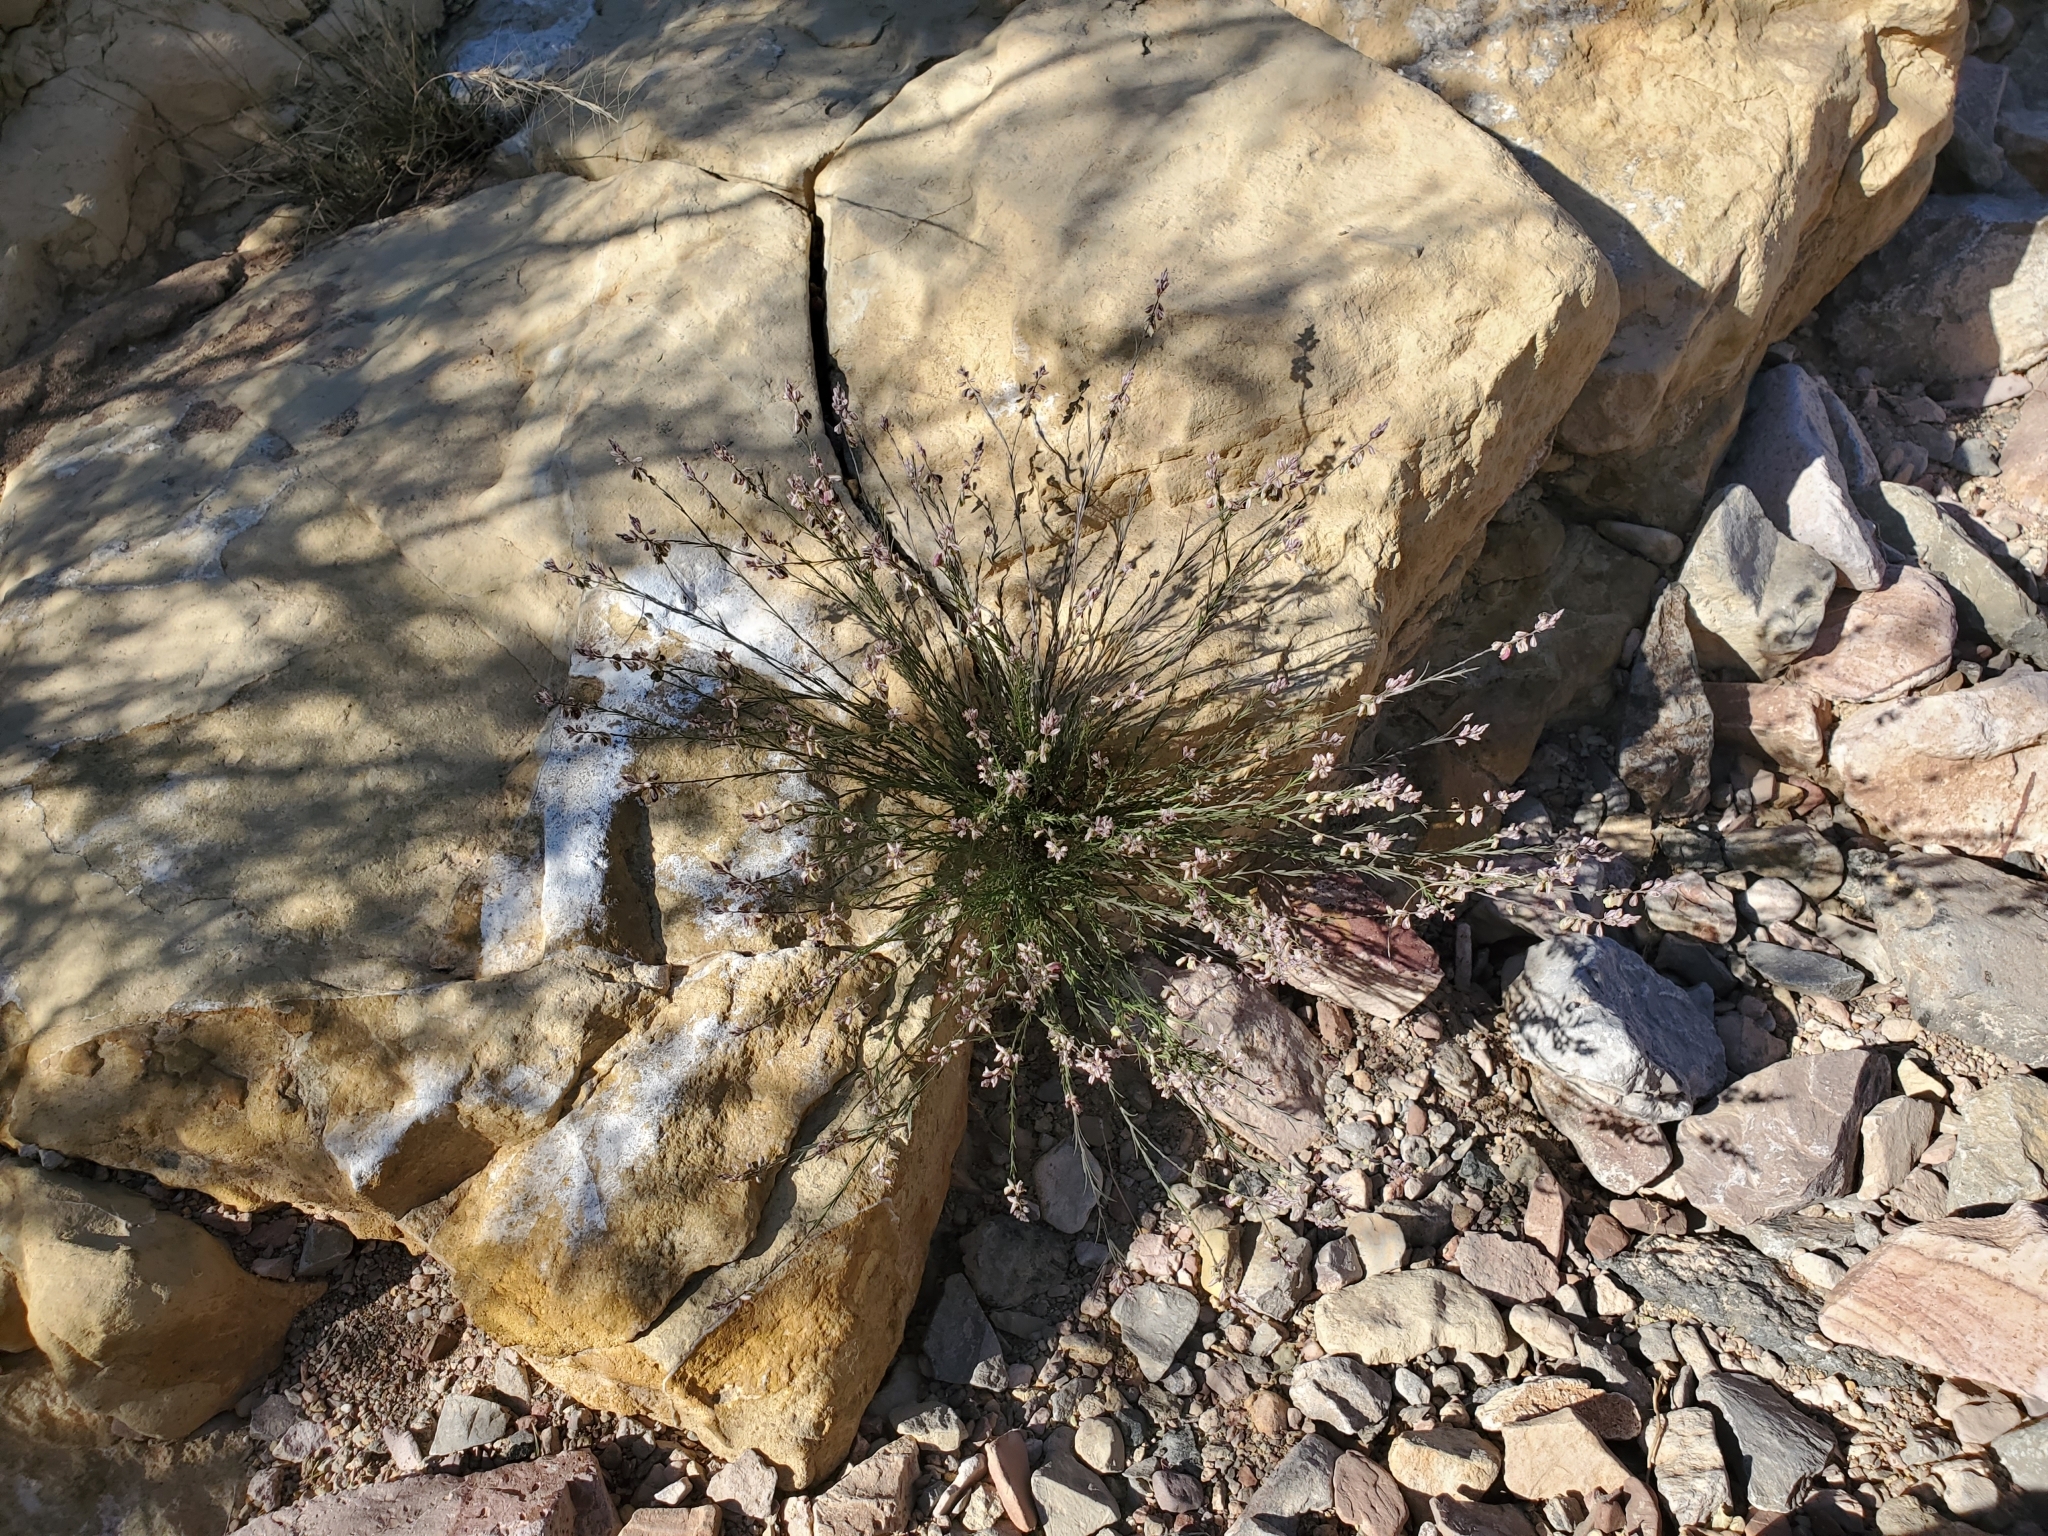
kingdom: Plantae
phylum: Tracheophyta
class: Magnoliopsida
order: Fabales
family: Polygalaceae
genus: Polygala
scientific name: Polygala scoparioides
